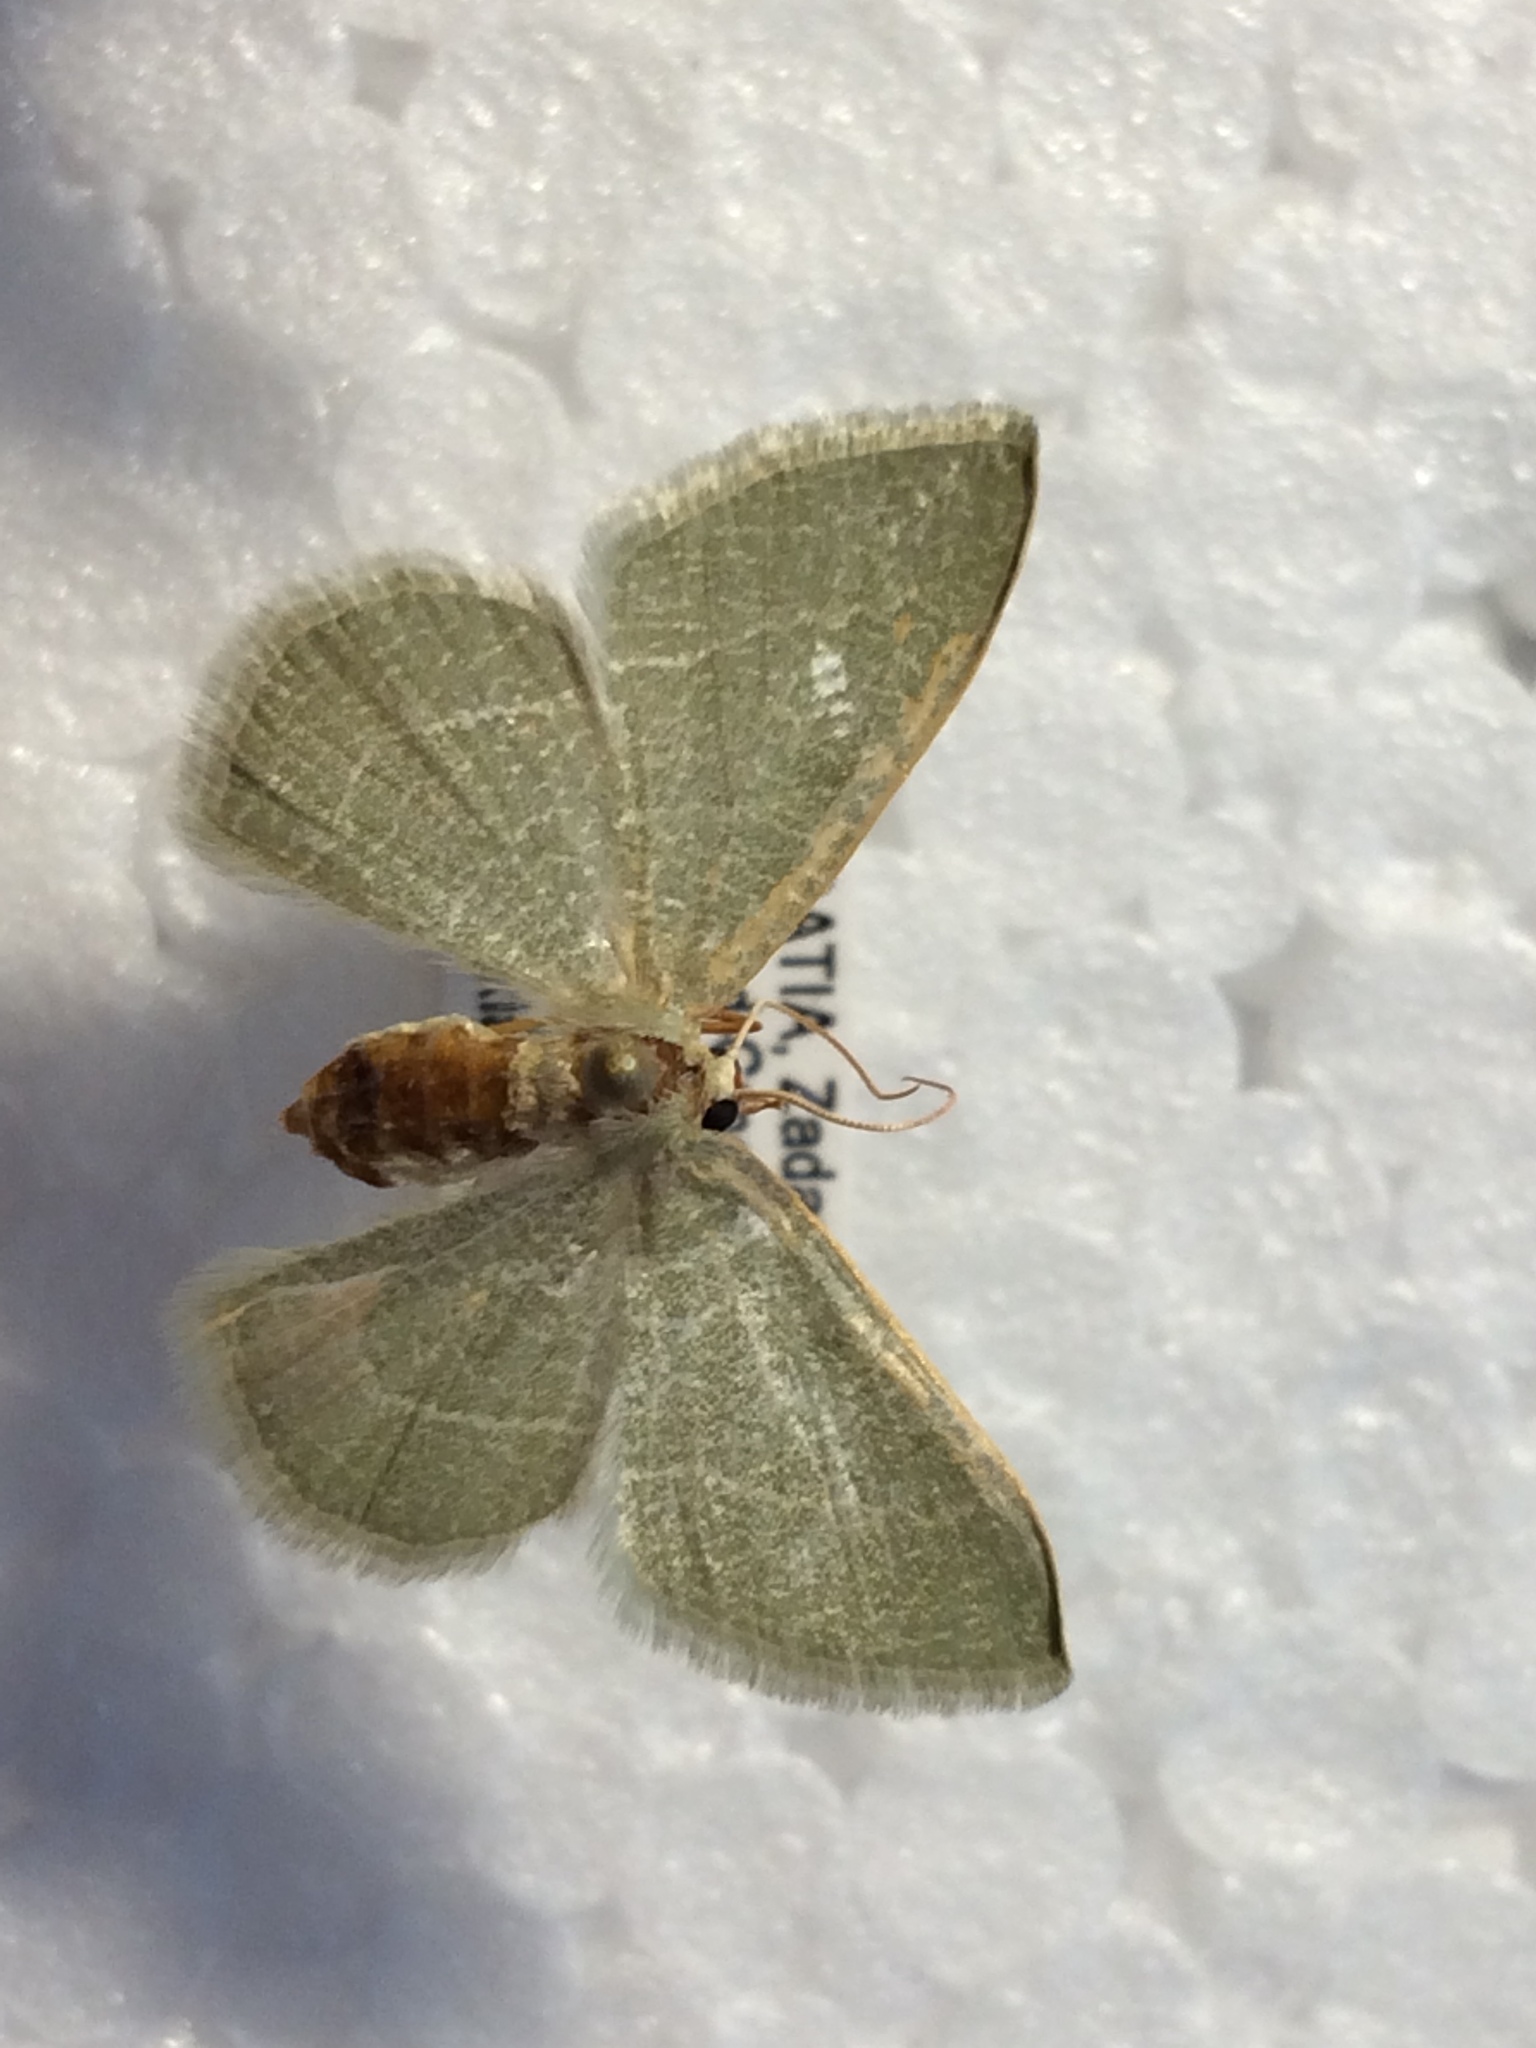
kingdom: Animalia
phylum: Arthropoda
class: Insecta
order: Lepidoptera
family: Geometridae
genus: Chlorissa
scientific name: Chlorissa etruscaria
